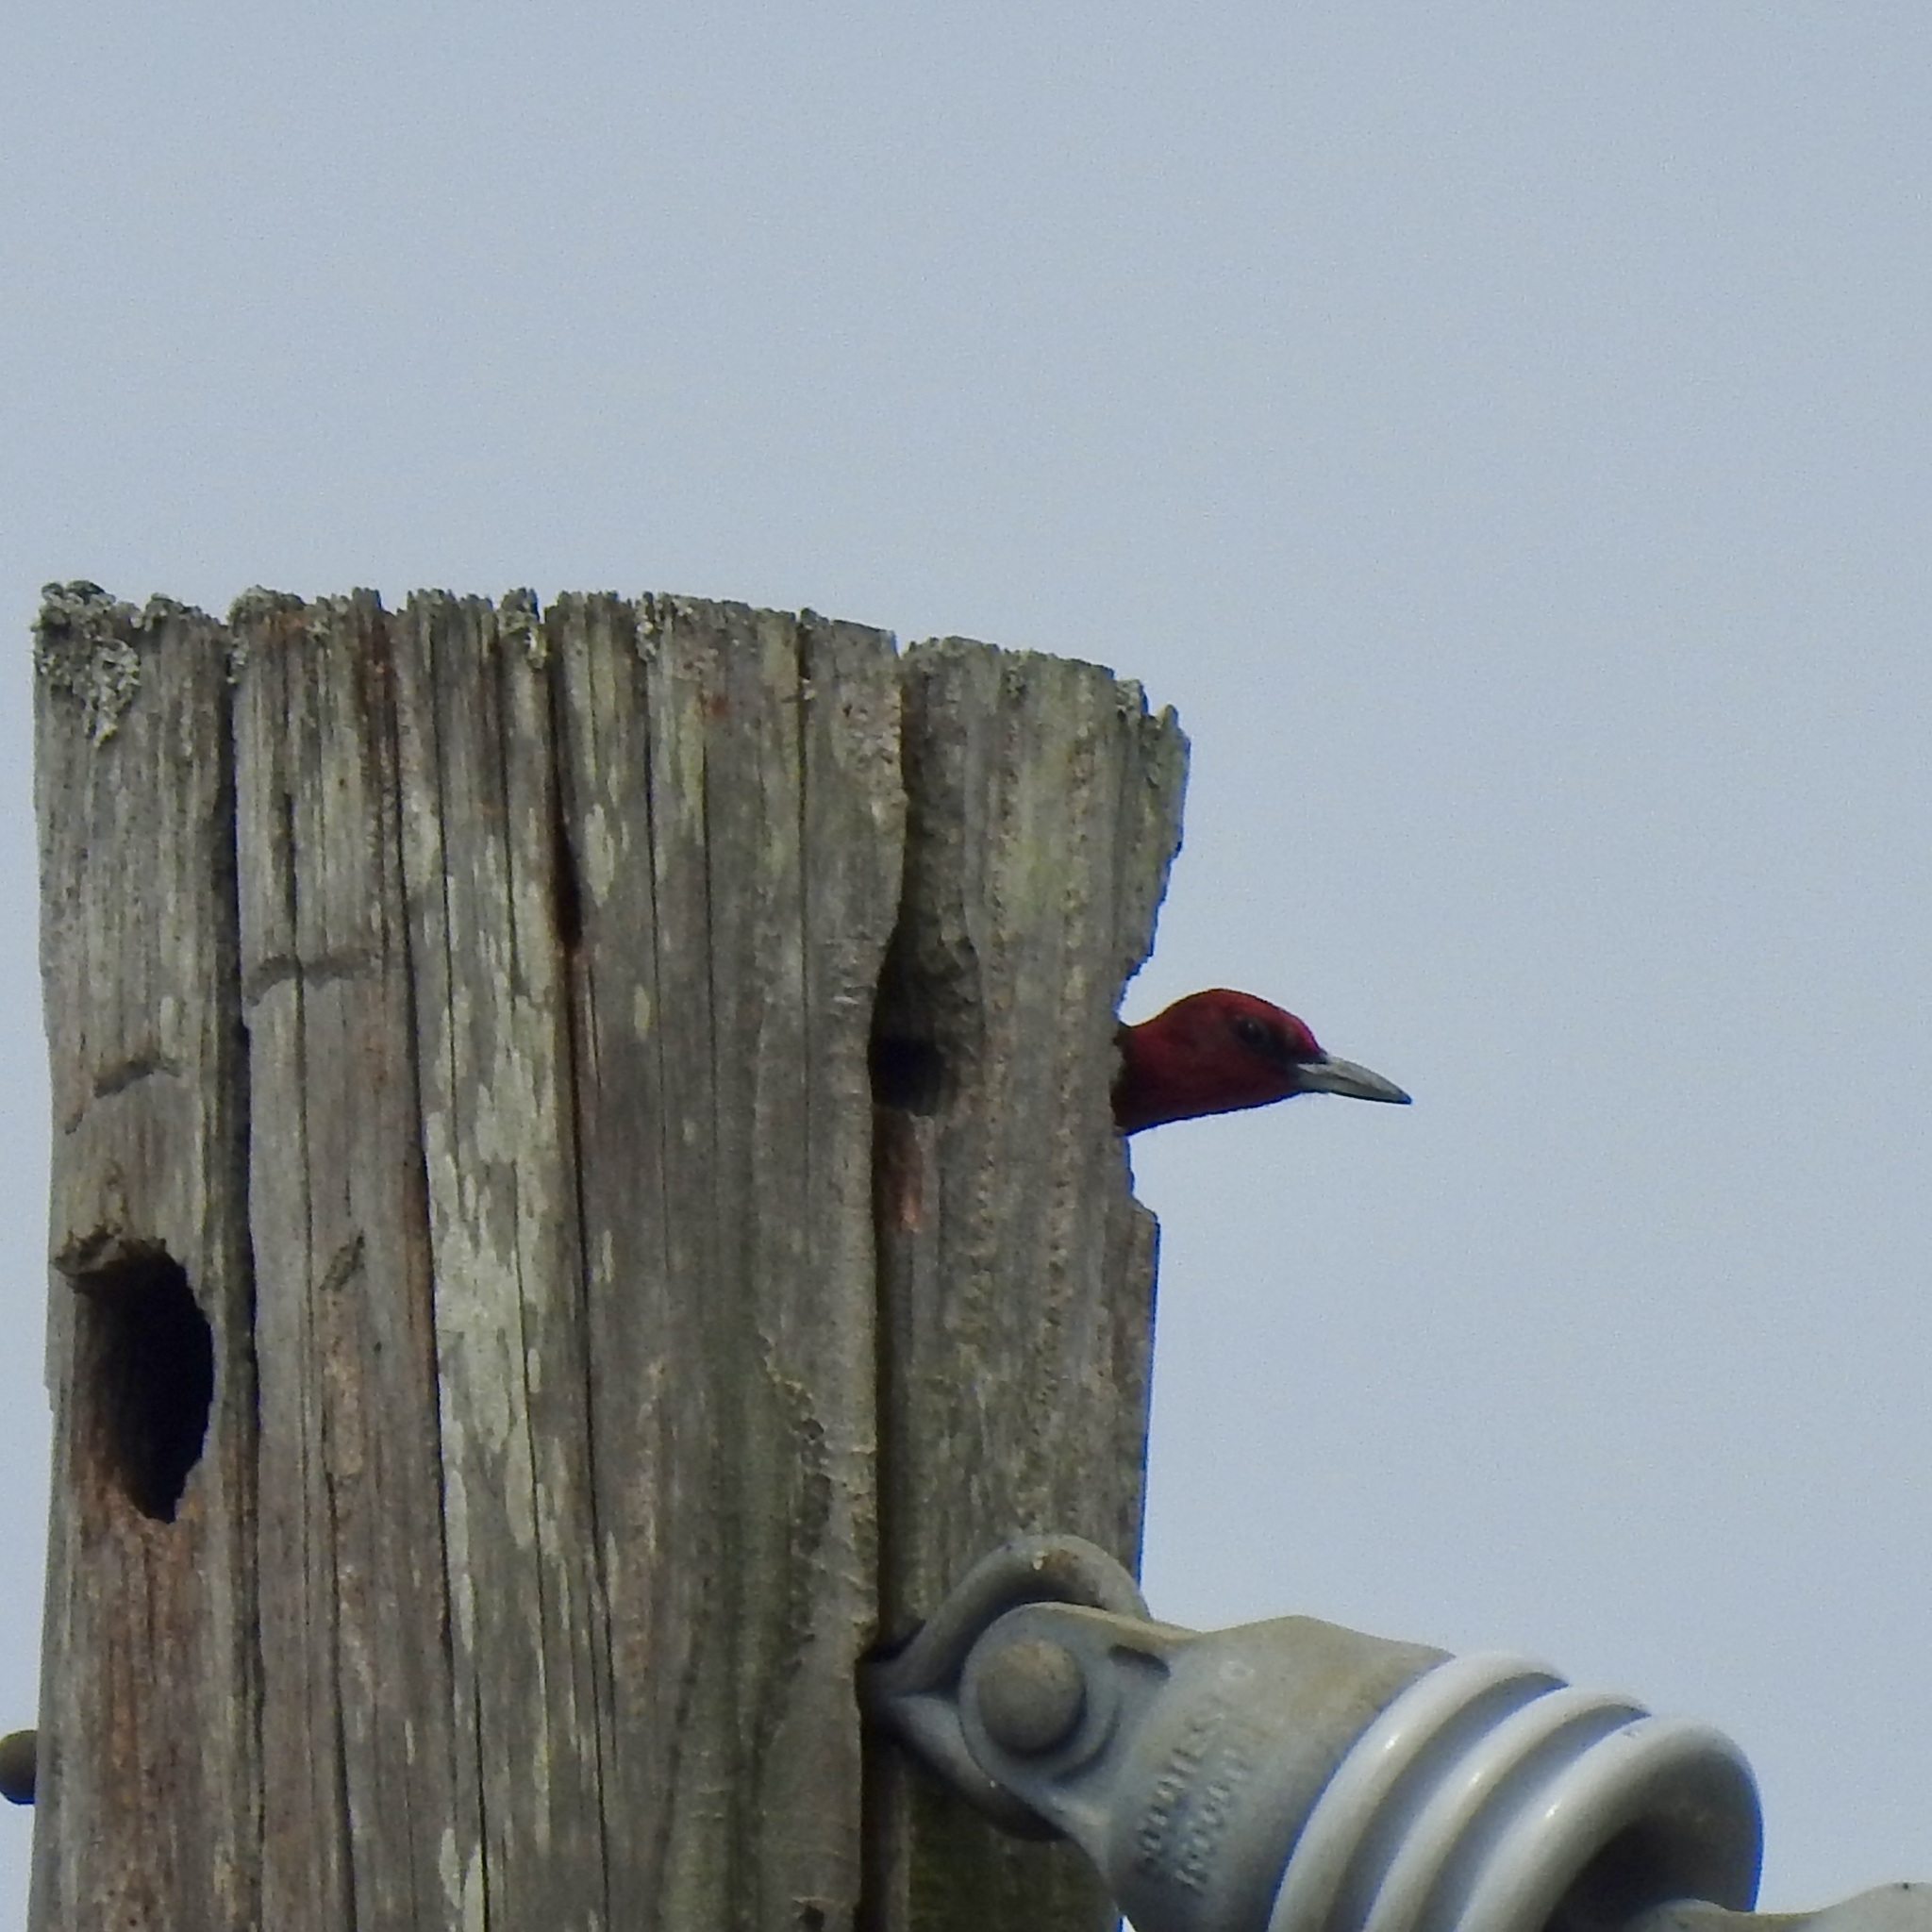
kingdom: Animalia
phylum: Chordata
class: Aves
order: Piciformes
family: Picidae
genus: Melanerpes
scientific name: Melanerpes erythrocephalus
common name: Red-headed woodpecker
